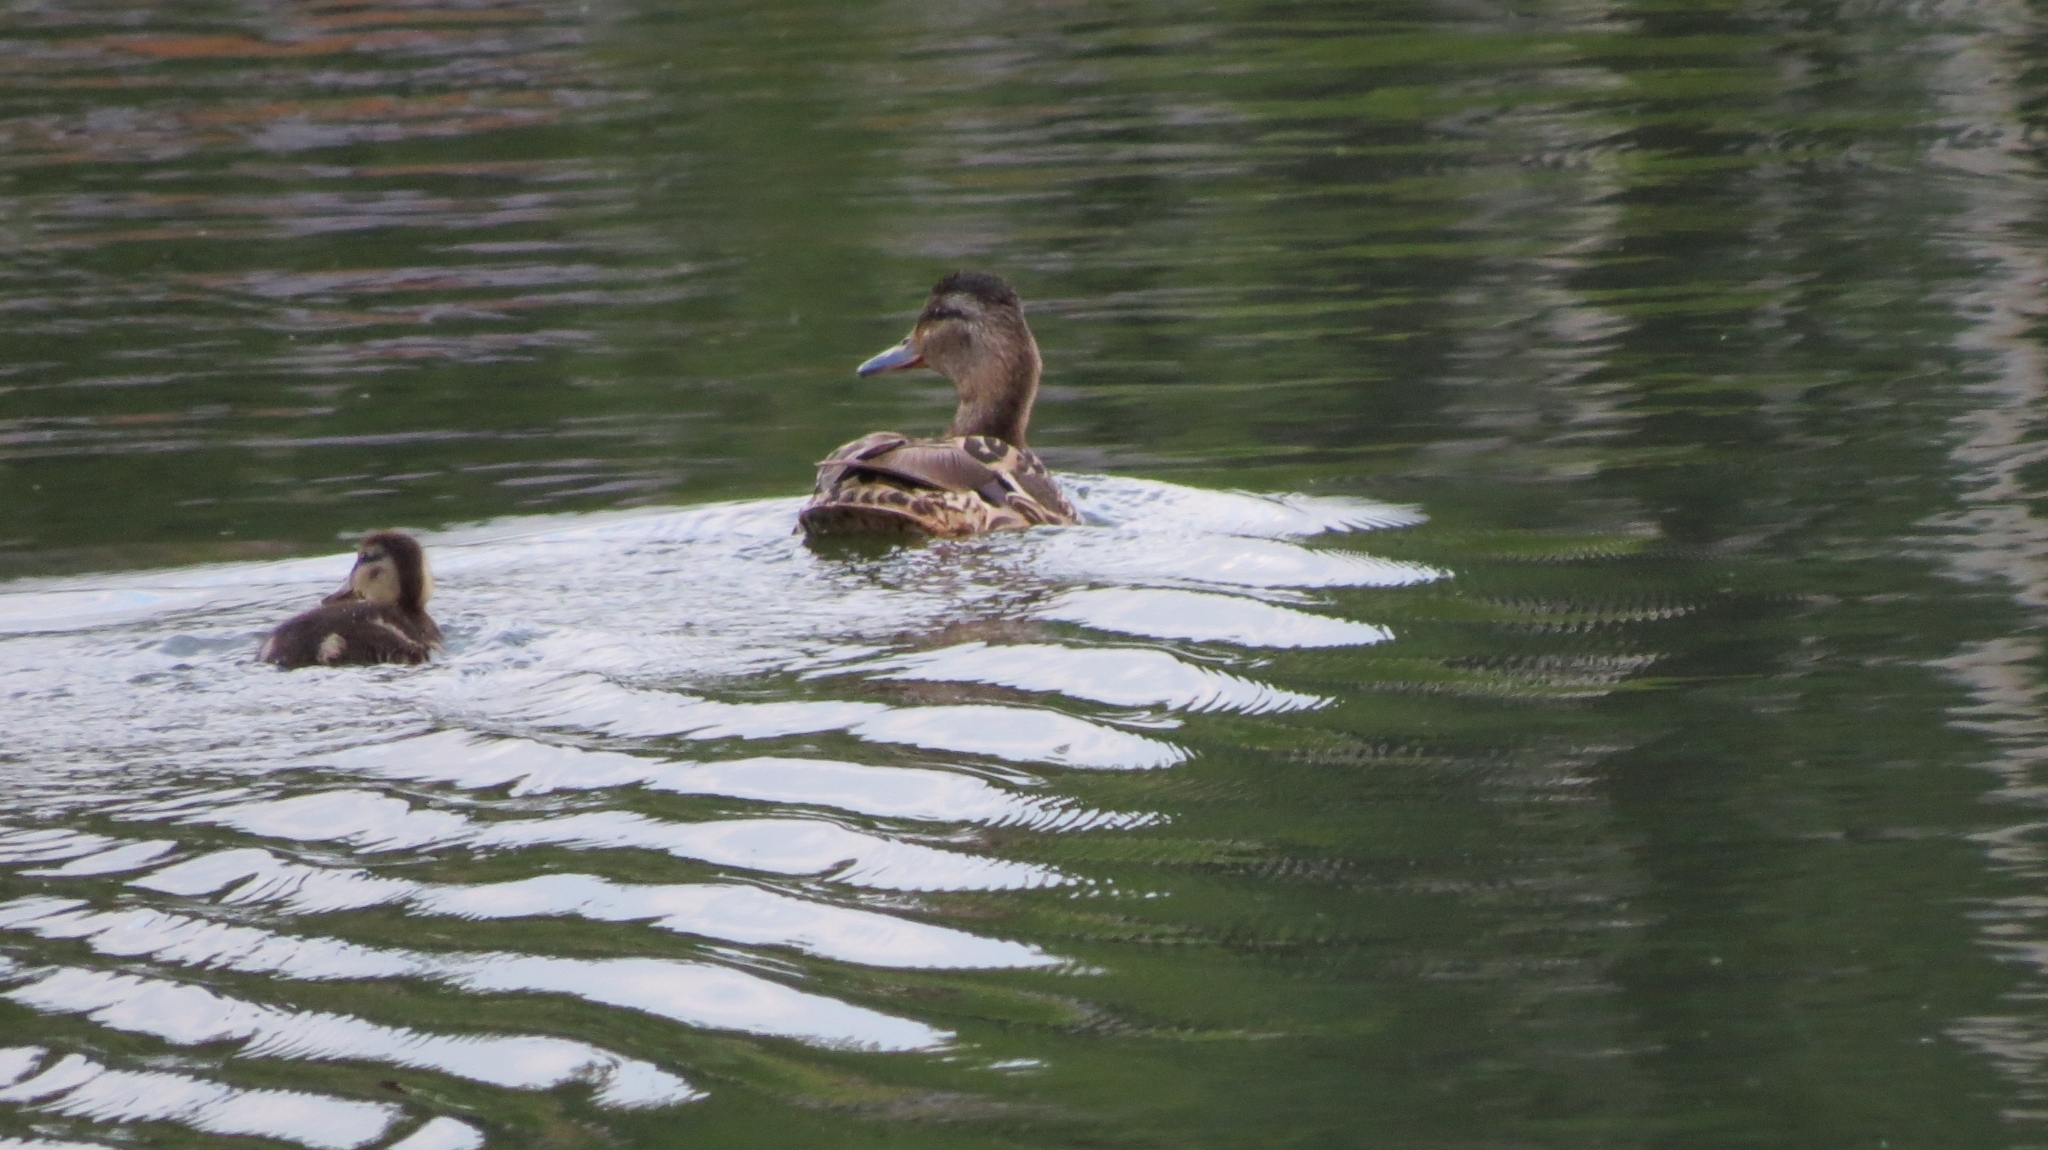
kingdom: Animalia
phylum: Chordata
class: Aves
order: Anseriformes
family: Anatidae
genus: Anas
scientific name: Anas platyrhynchos
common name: Mallard
